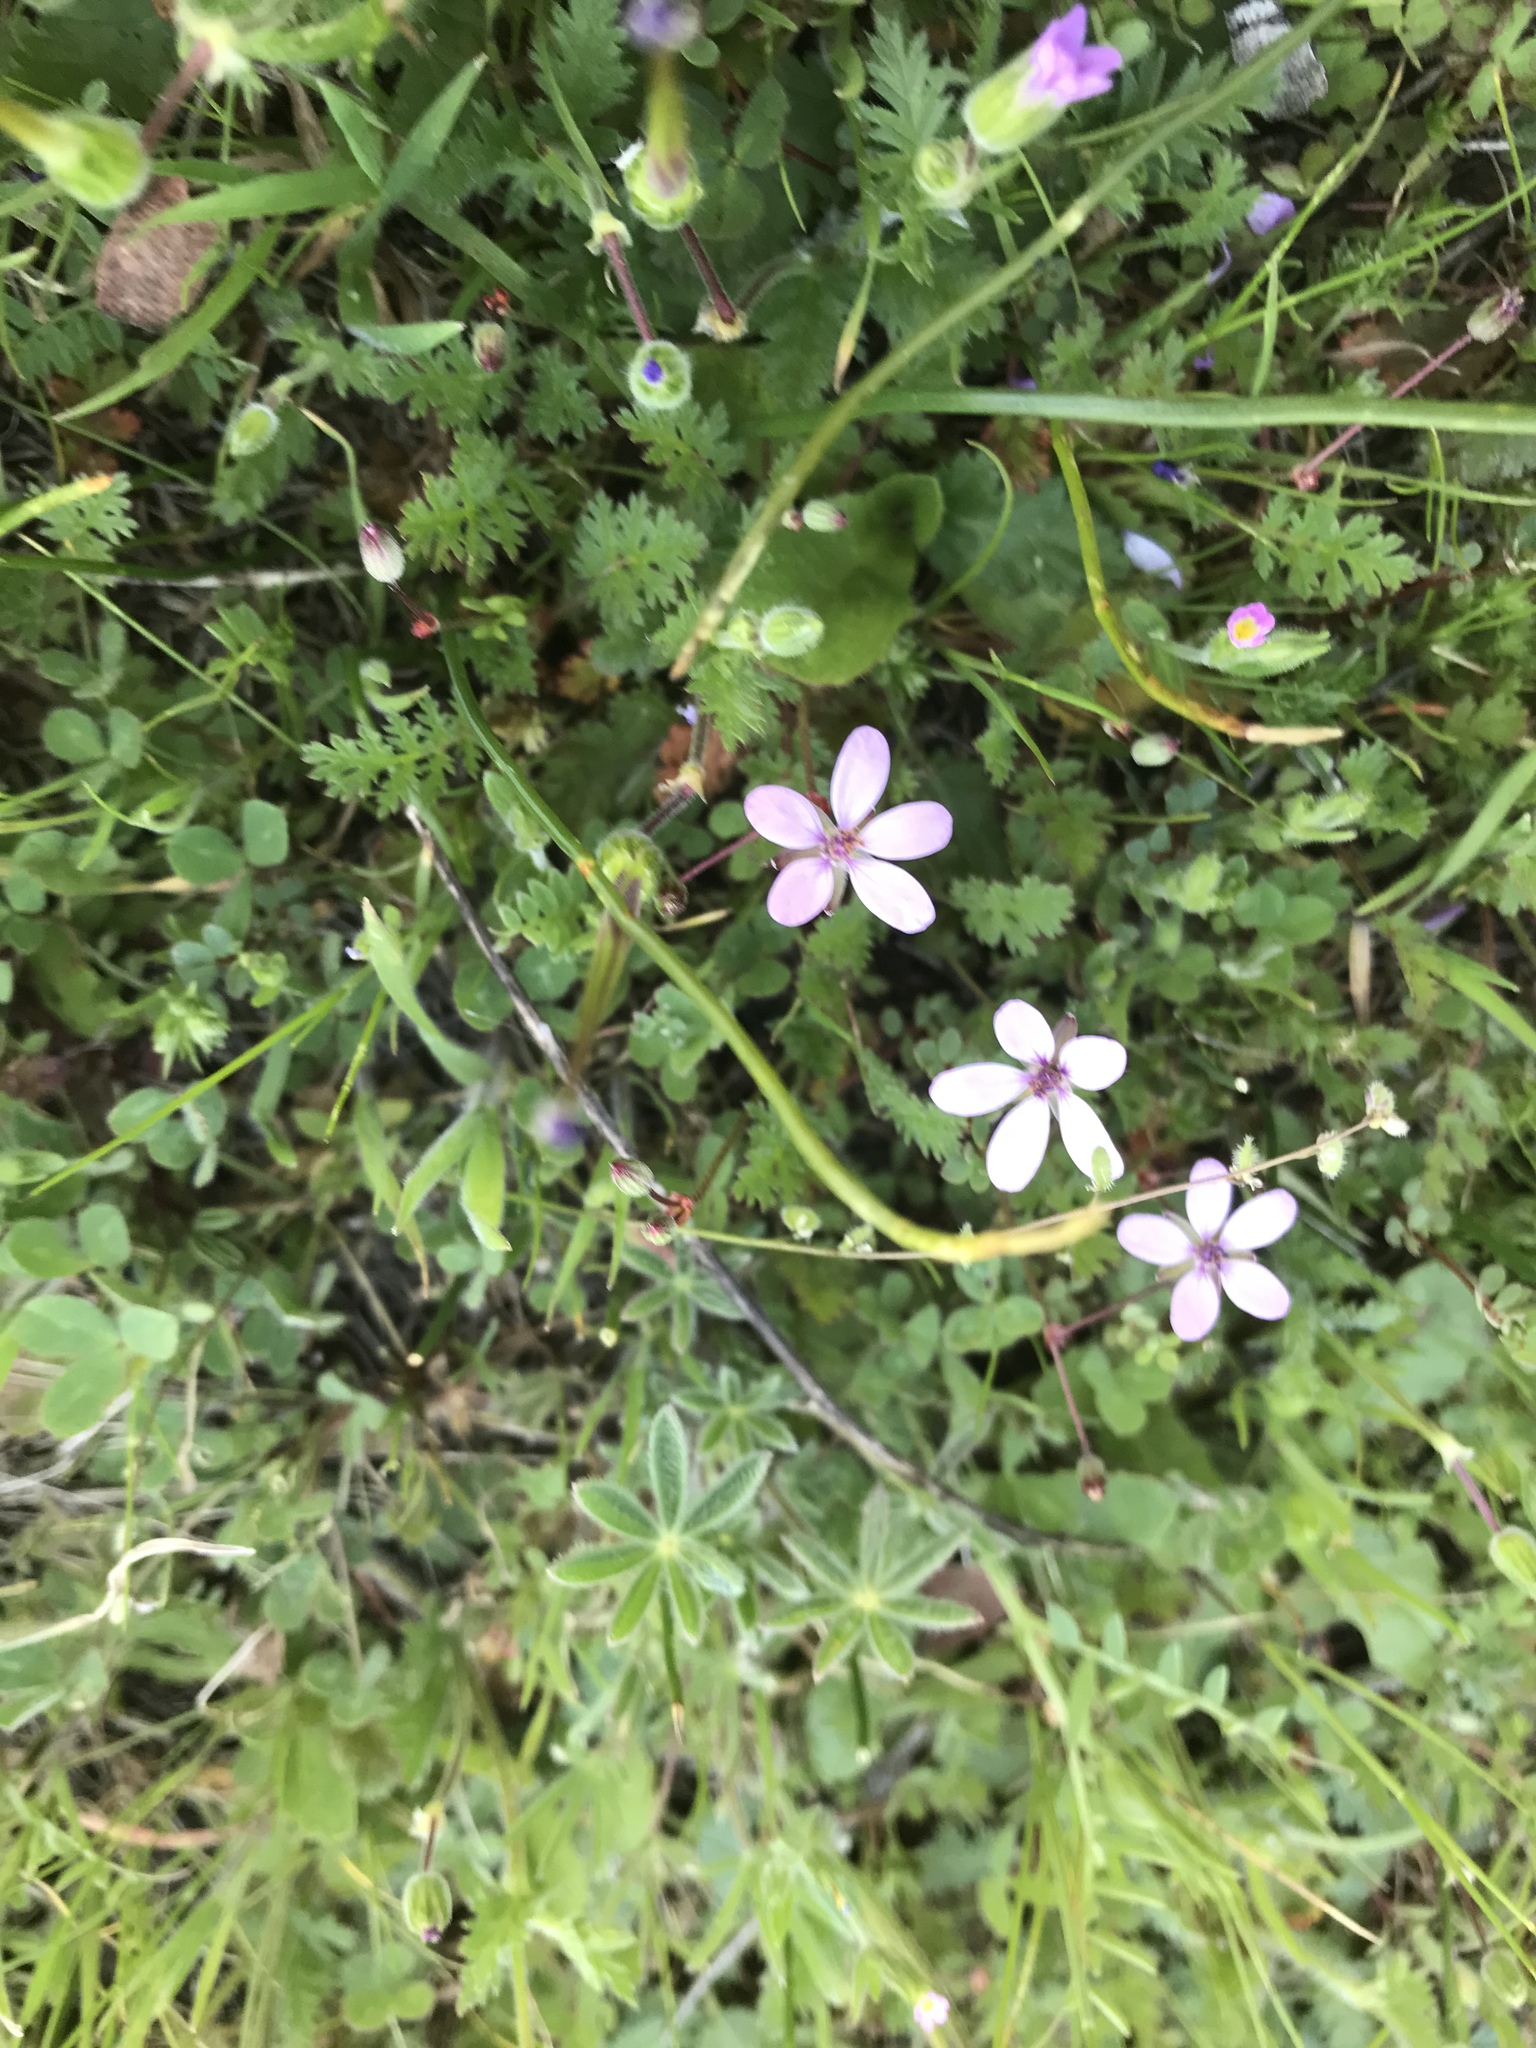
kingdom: Plantae
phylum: Tracheophyta
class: Magnoliopsida
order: Geraniales
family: Geraniaceae
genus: Erodium
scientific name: Erodium cicutarium
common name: Common stork's-bill
